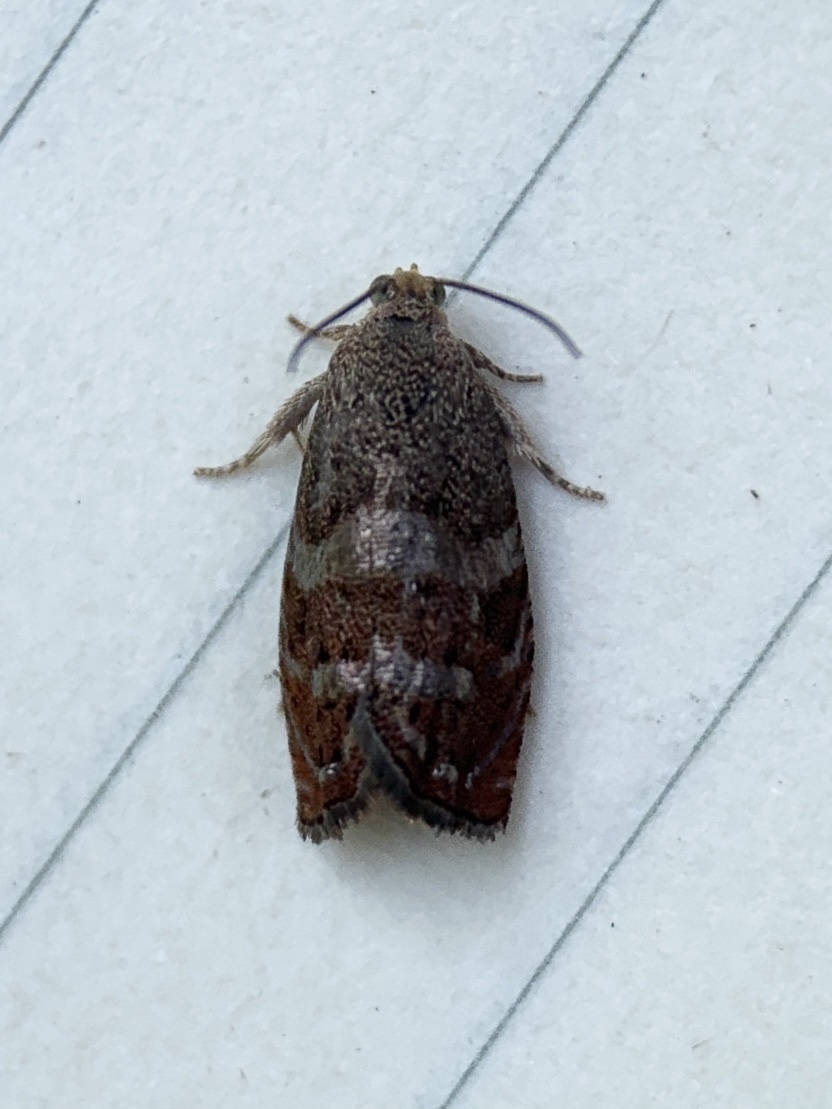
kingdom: Animalia
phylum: Arthropoda
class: Insecta
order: Lepidoptera
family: Tortricidae
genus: Cydia
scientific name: Cydia latiferreana
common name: Filbertworm moth
